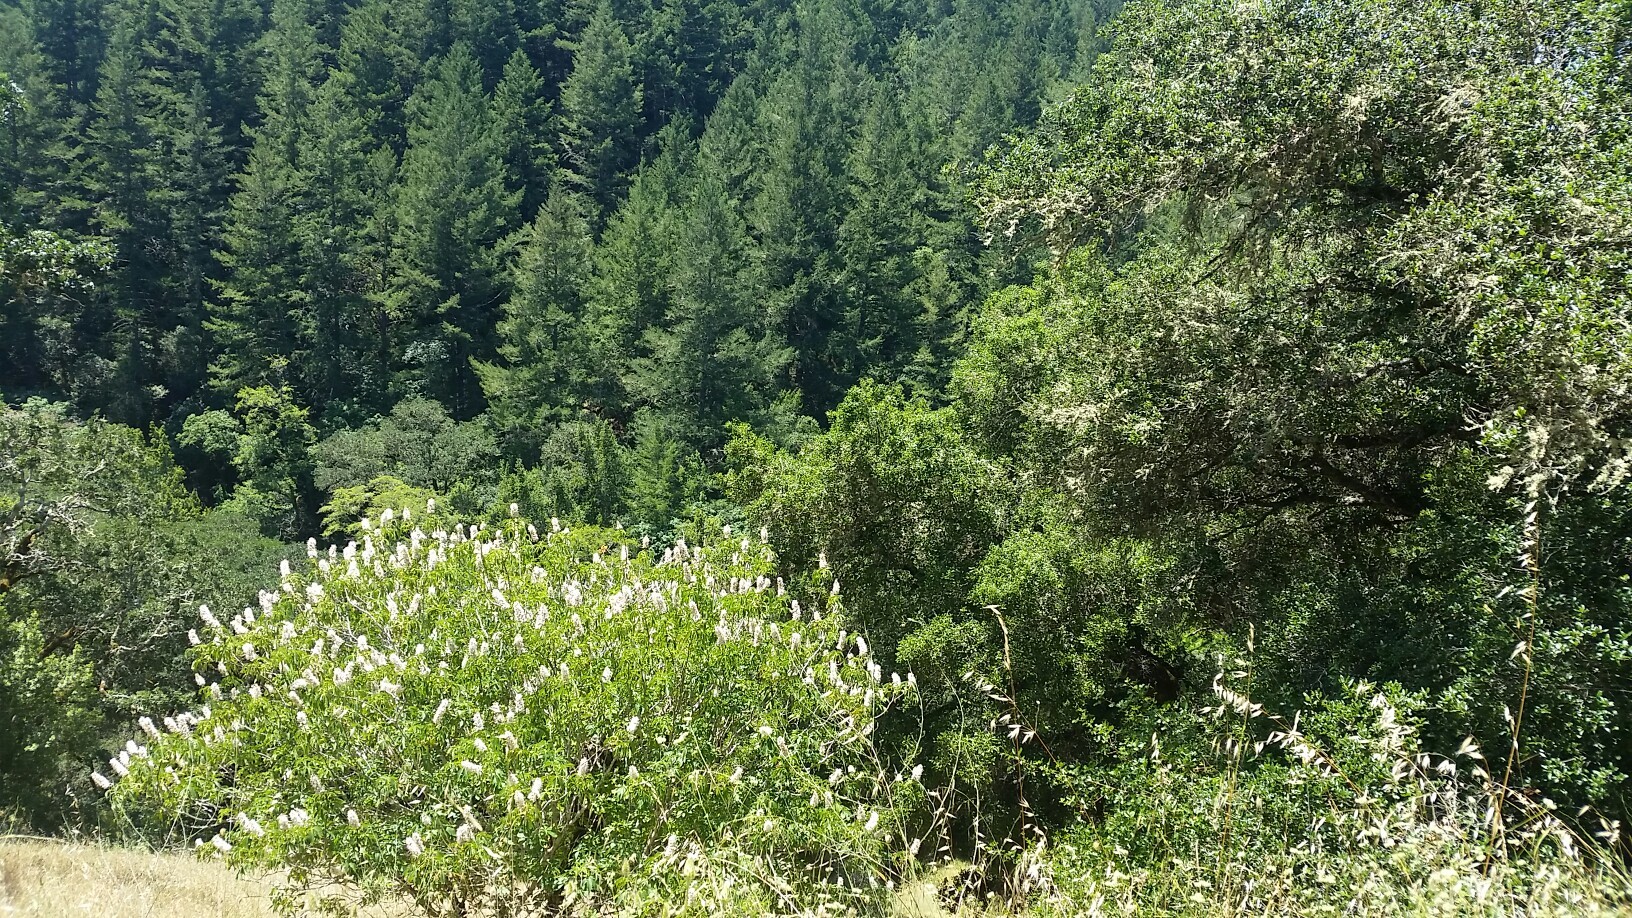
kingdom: Plantae
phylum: Tracheophyta
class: Magnoliopsida
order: Sapindales
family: Sapindaceae
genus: Aesculus
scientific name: Aesculus californica
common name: California buckeye
